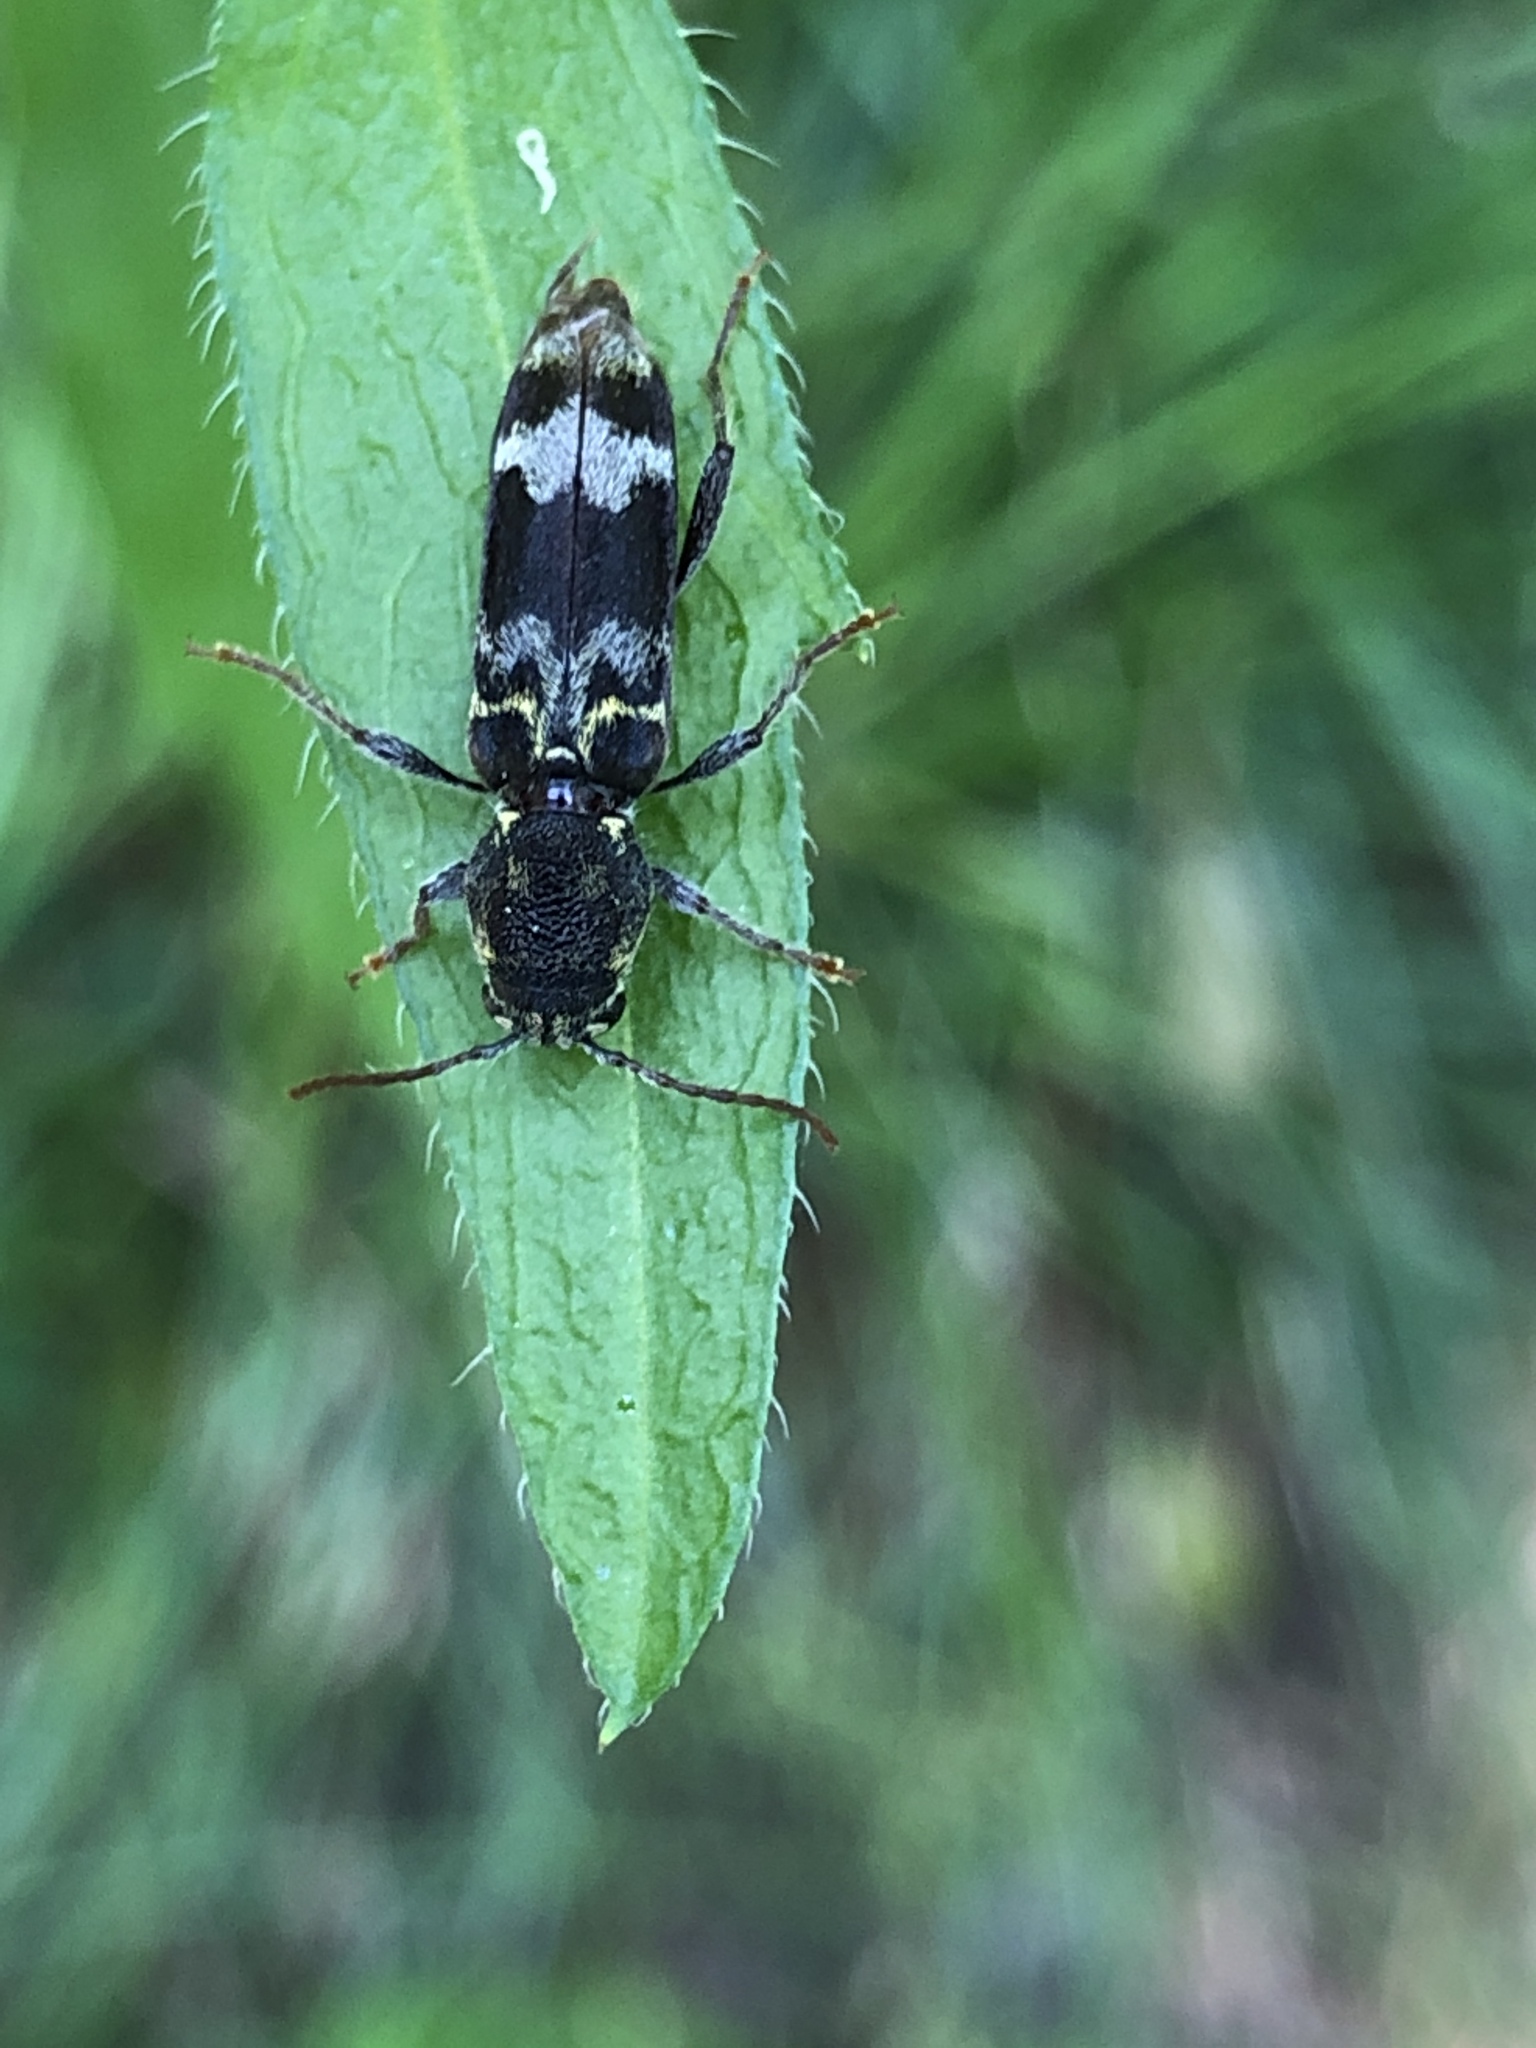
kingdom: Animalia
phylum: Arthropoda
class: Insecta
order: Coleoptera
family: Cerambycidae
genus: Xylotrechus
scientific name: Xylotrechus colonus
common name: Long-horned beetle
